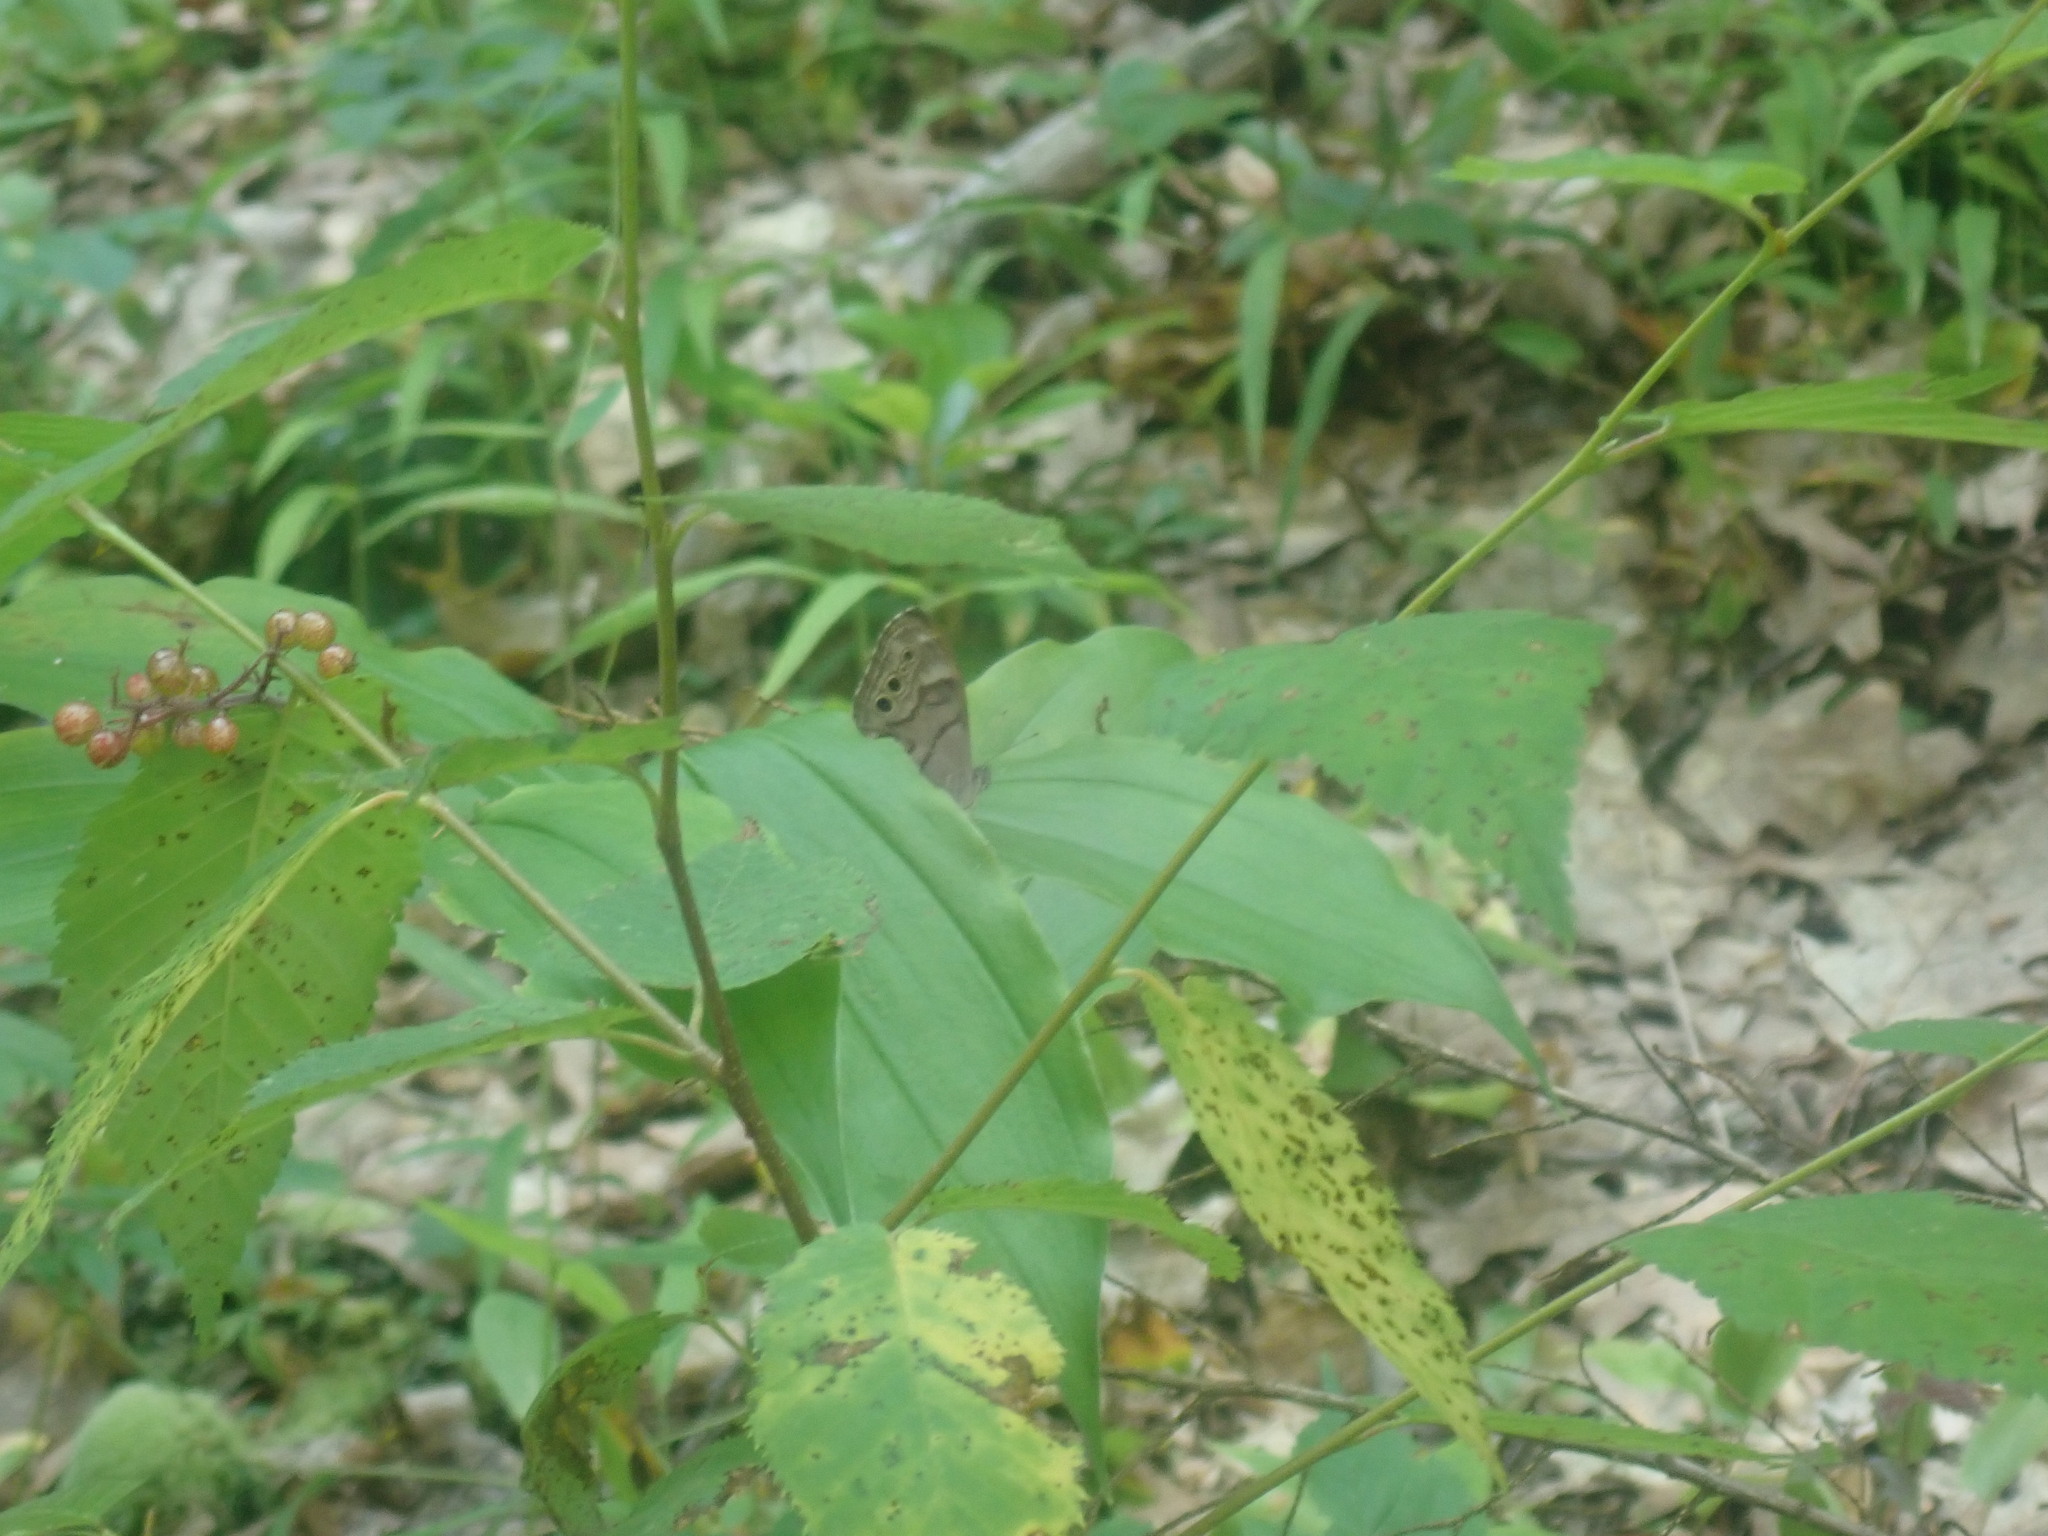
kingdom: Animalia
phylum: Arthropoda
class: Insecta
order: Lepidoptera
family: Nymphalidae
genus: Lethe
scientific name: Lethe anthedon
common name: Northern pearly-eye
